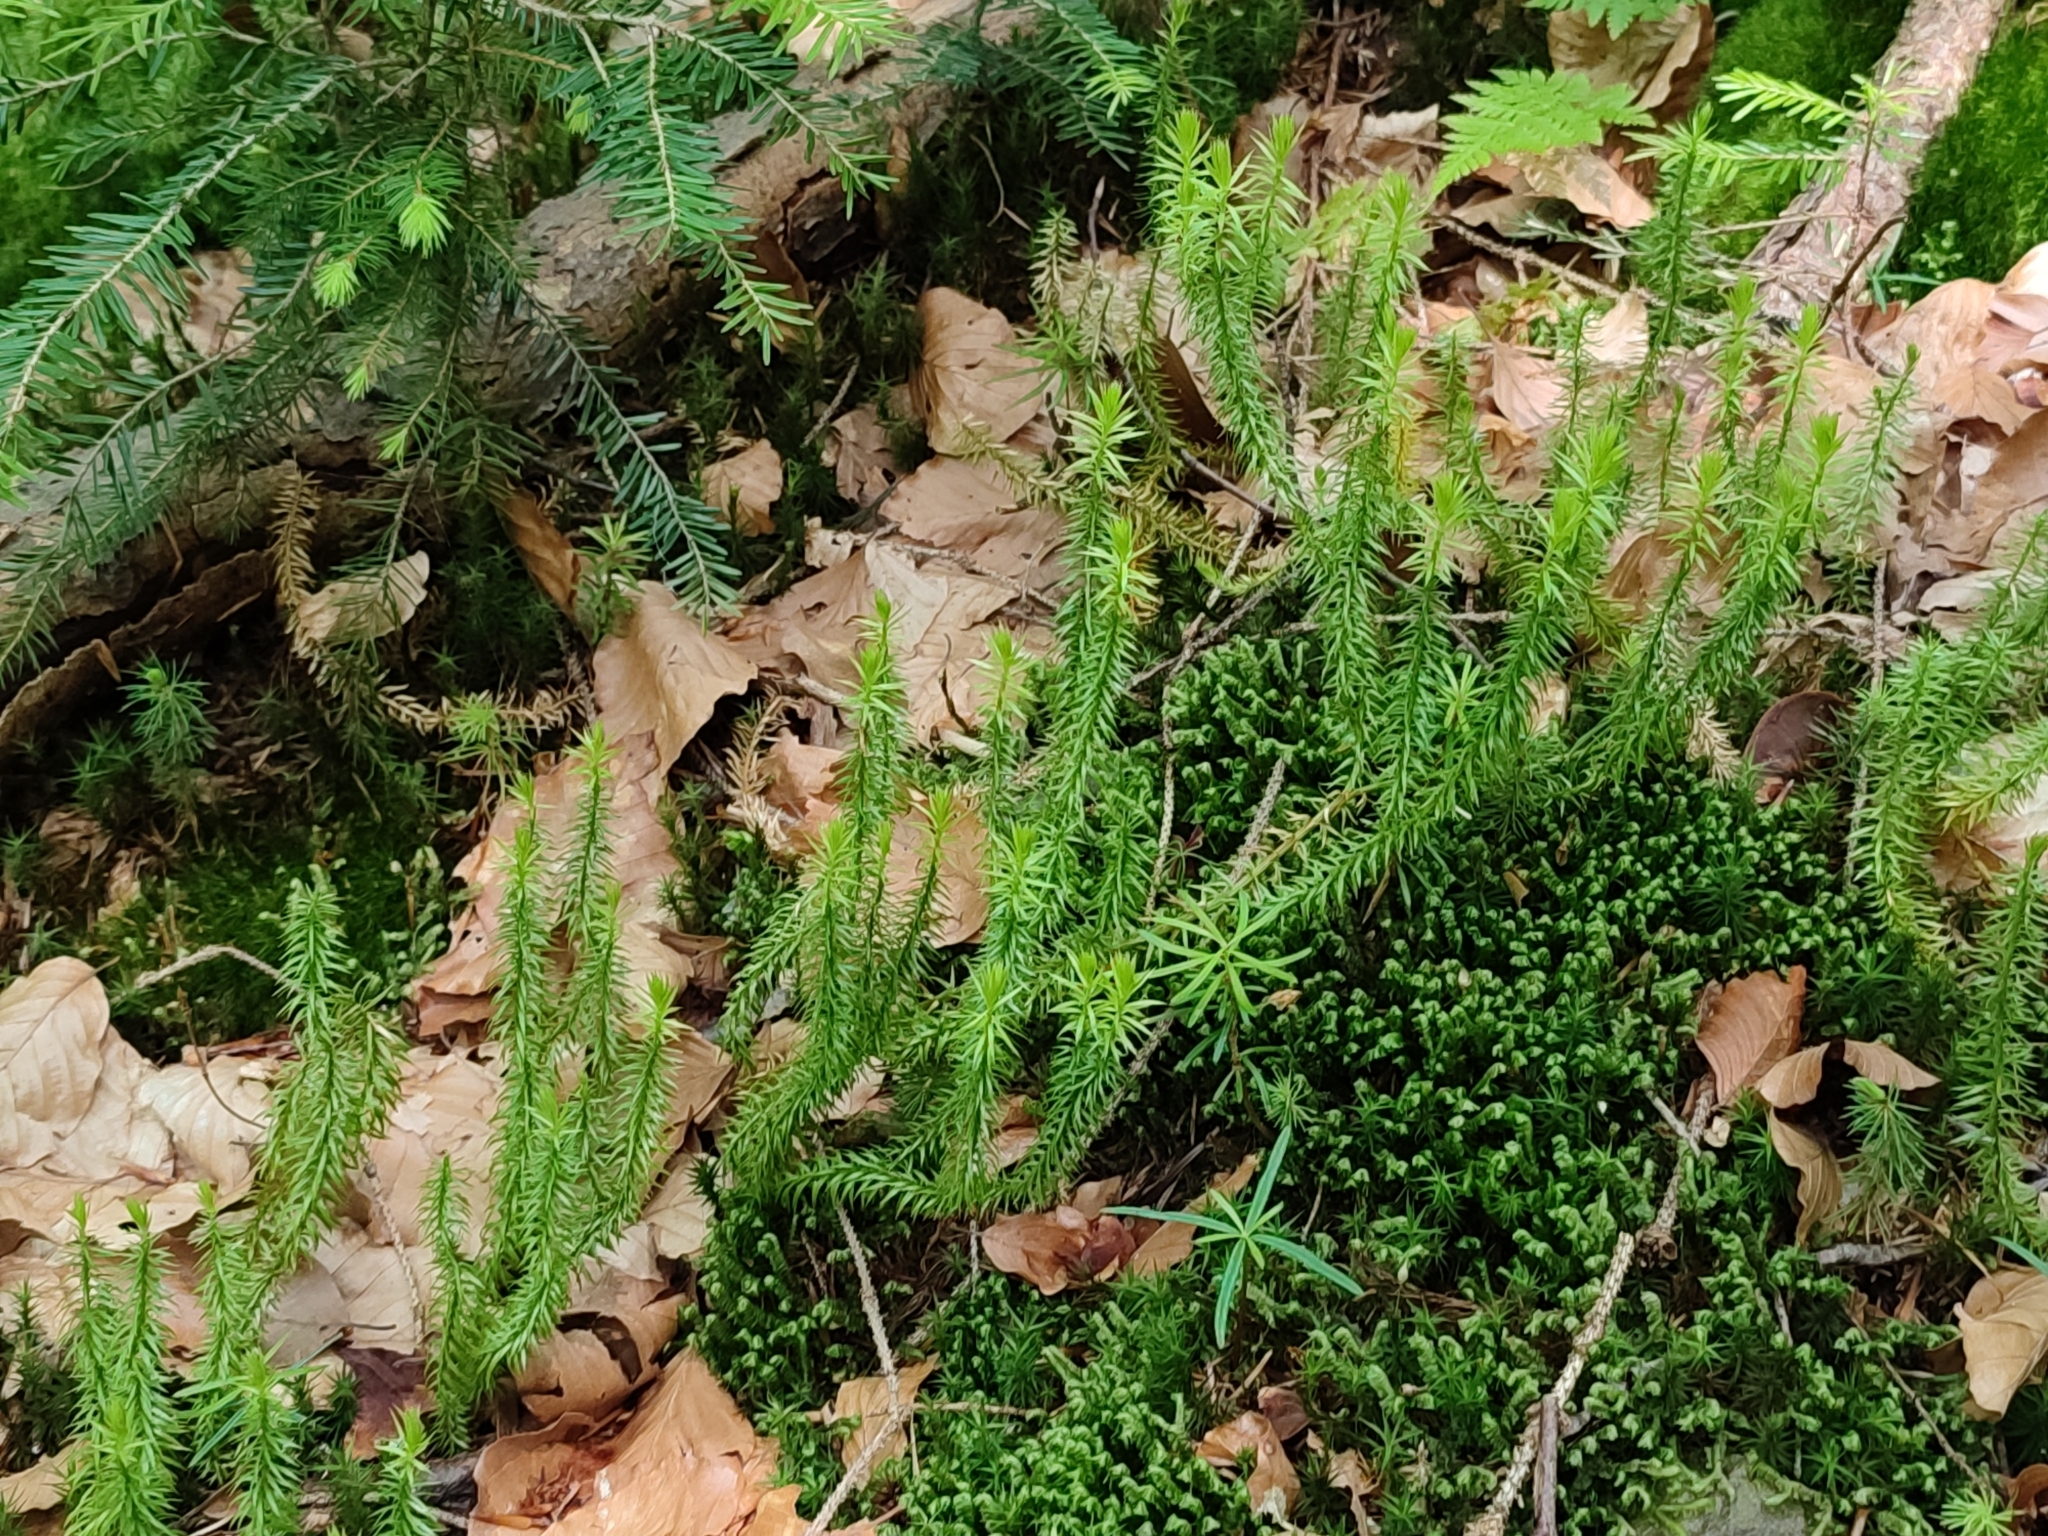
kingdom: Plantae
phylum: Tracheophyta
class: Lycopodiopsida
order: Lycopodiales
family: Lycopodiaceae
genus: Spinulum
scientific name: Spinulum annotinum
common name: Interrupted club-moss
